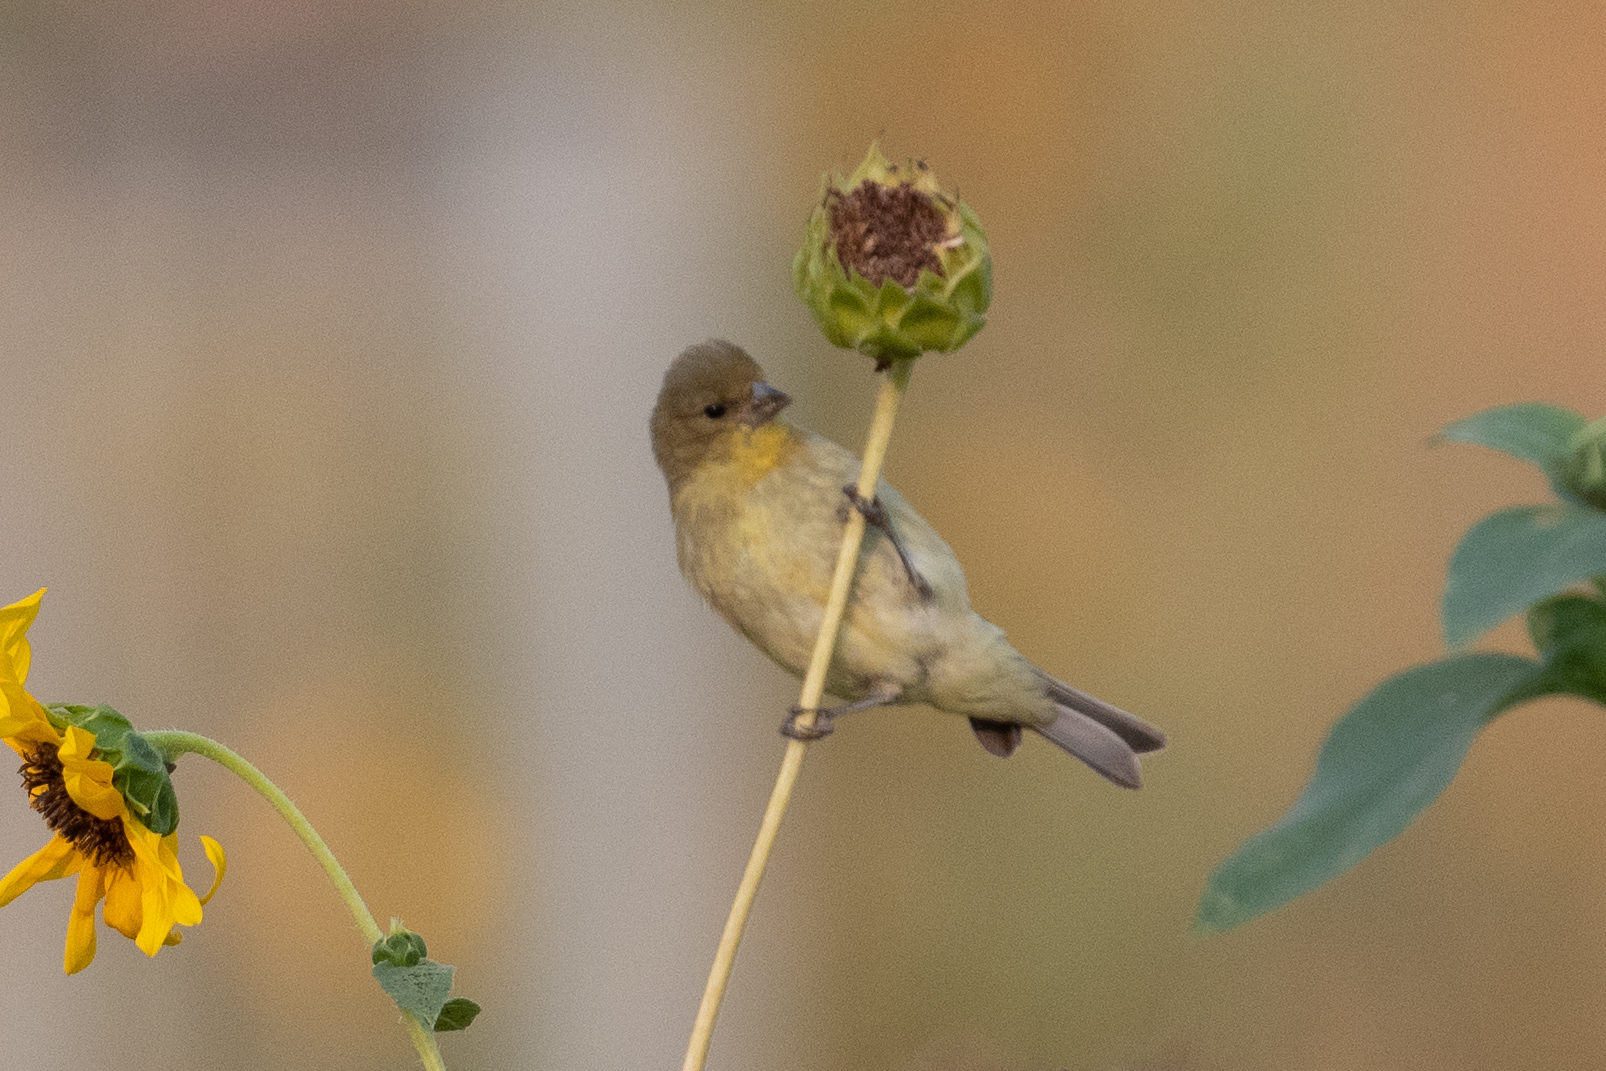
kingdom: Animalia
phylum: Chordata
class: Aves
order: Passeriformes
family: Fringillidae
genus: Spinus
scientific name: Spinus psaltria
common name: Lesser goldfinch
